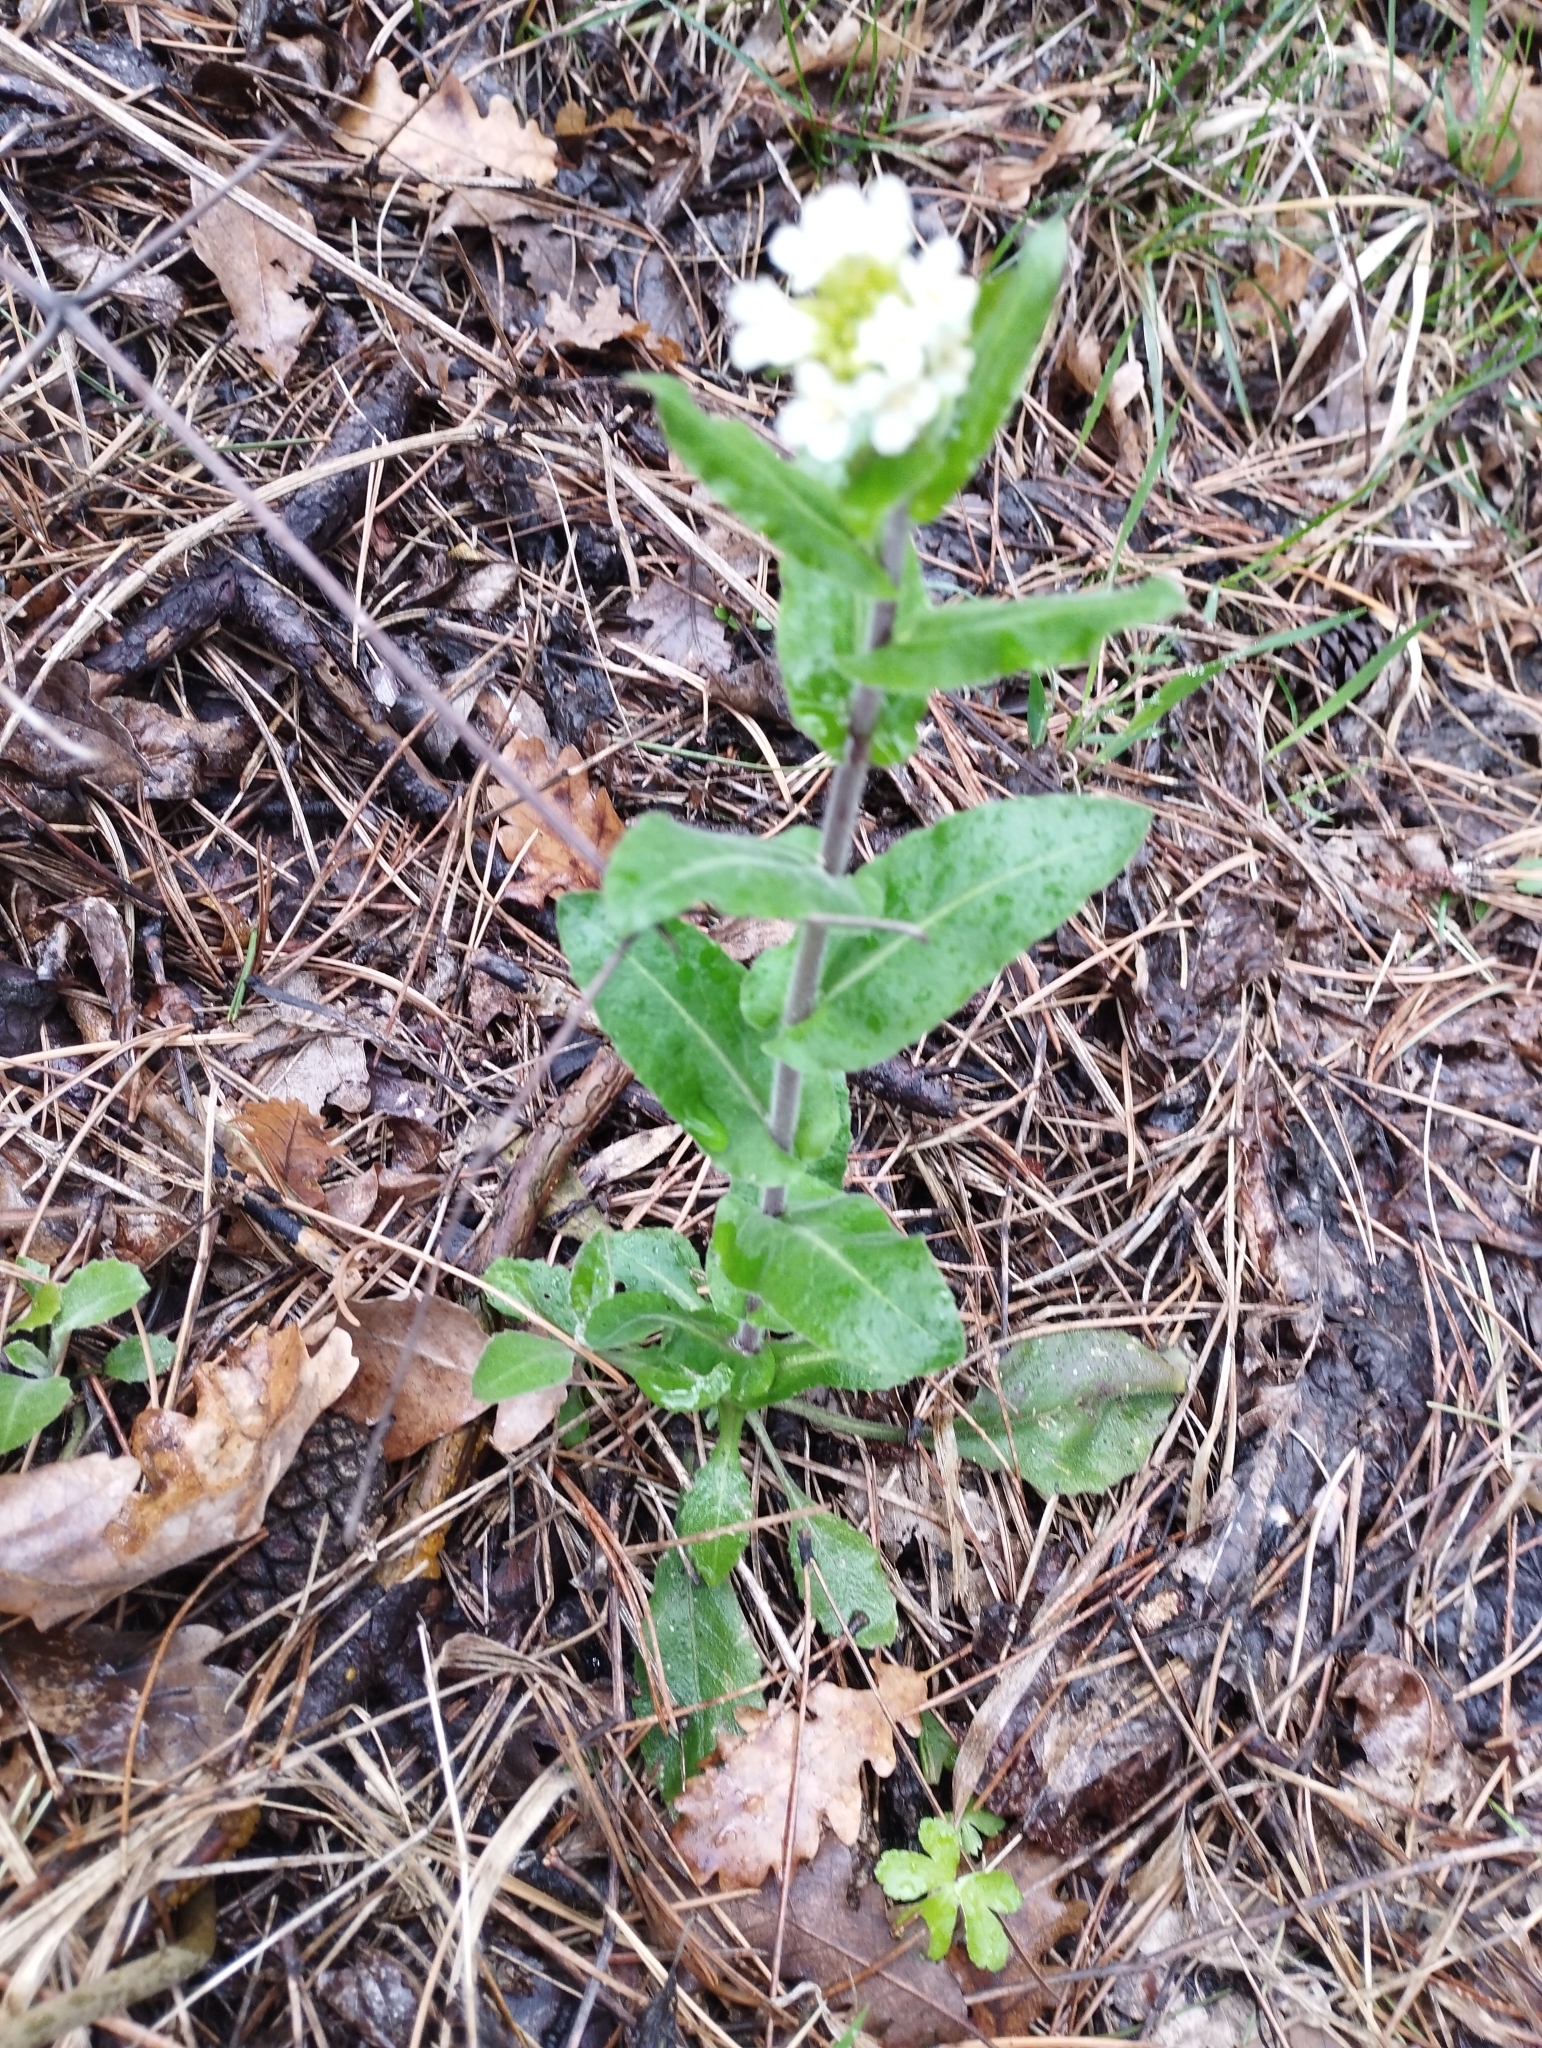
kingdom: Plantae
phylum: Tracheophyta
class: Magnoliopsida
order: Brassicales
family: Brassicaceae
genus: Pseudoturritis
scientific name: Pseudoturritis turrita
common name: Tower cress
